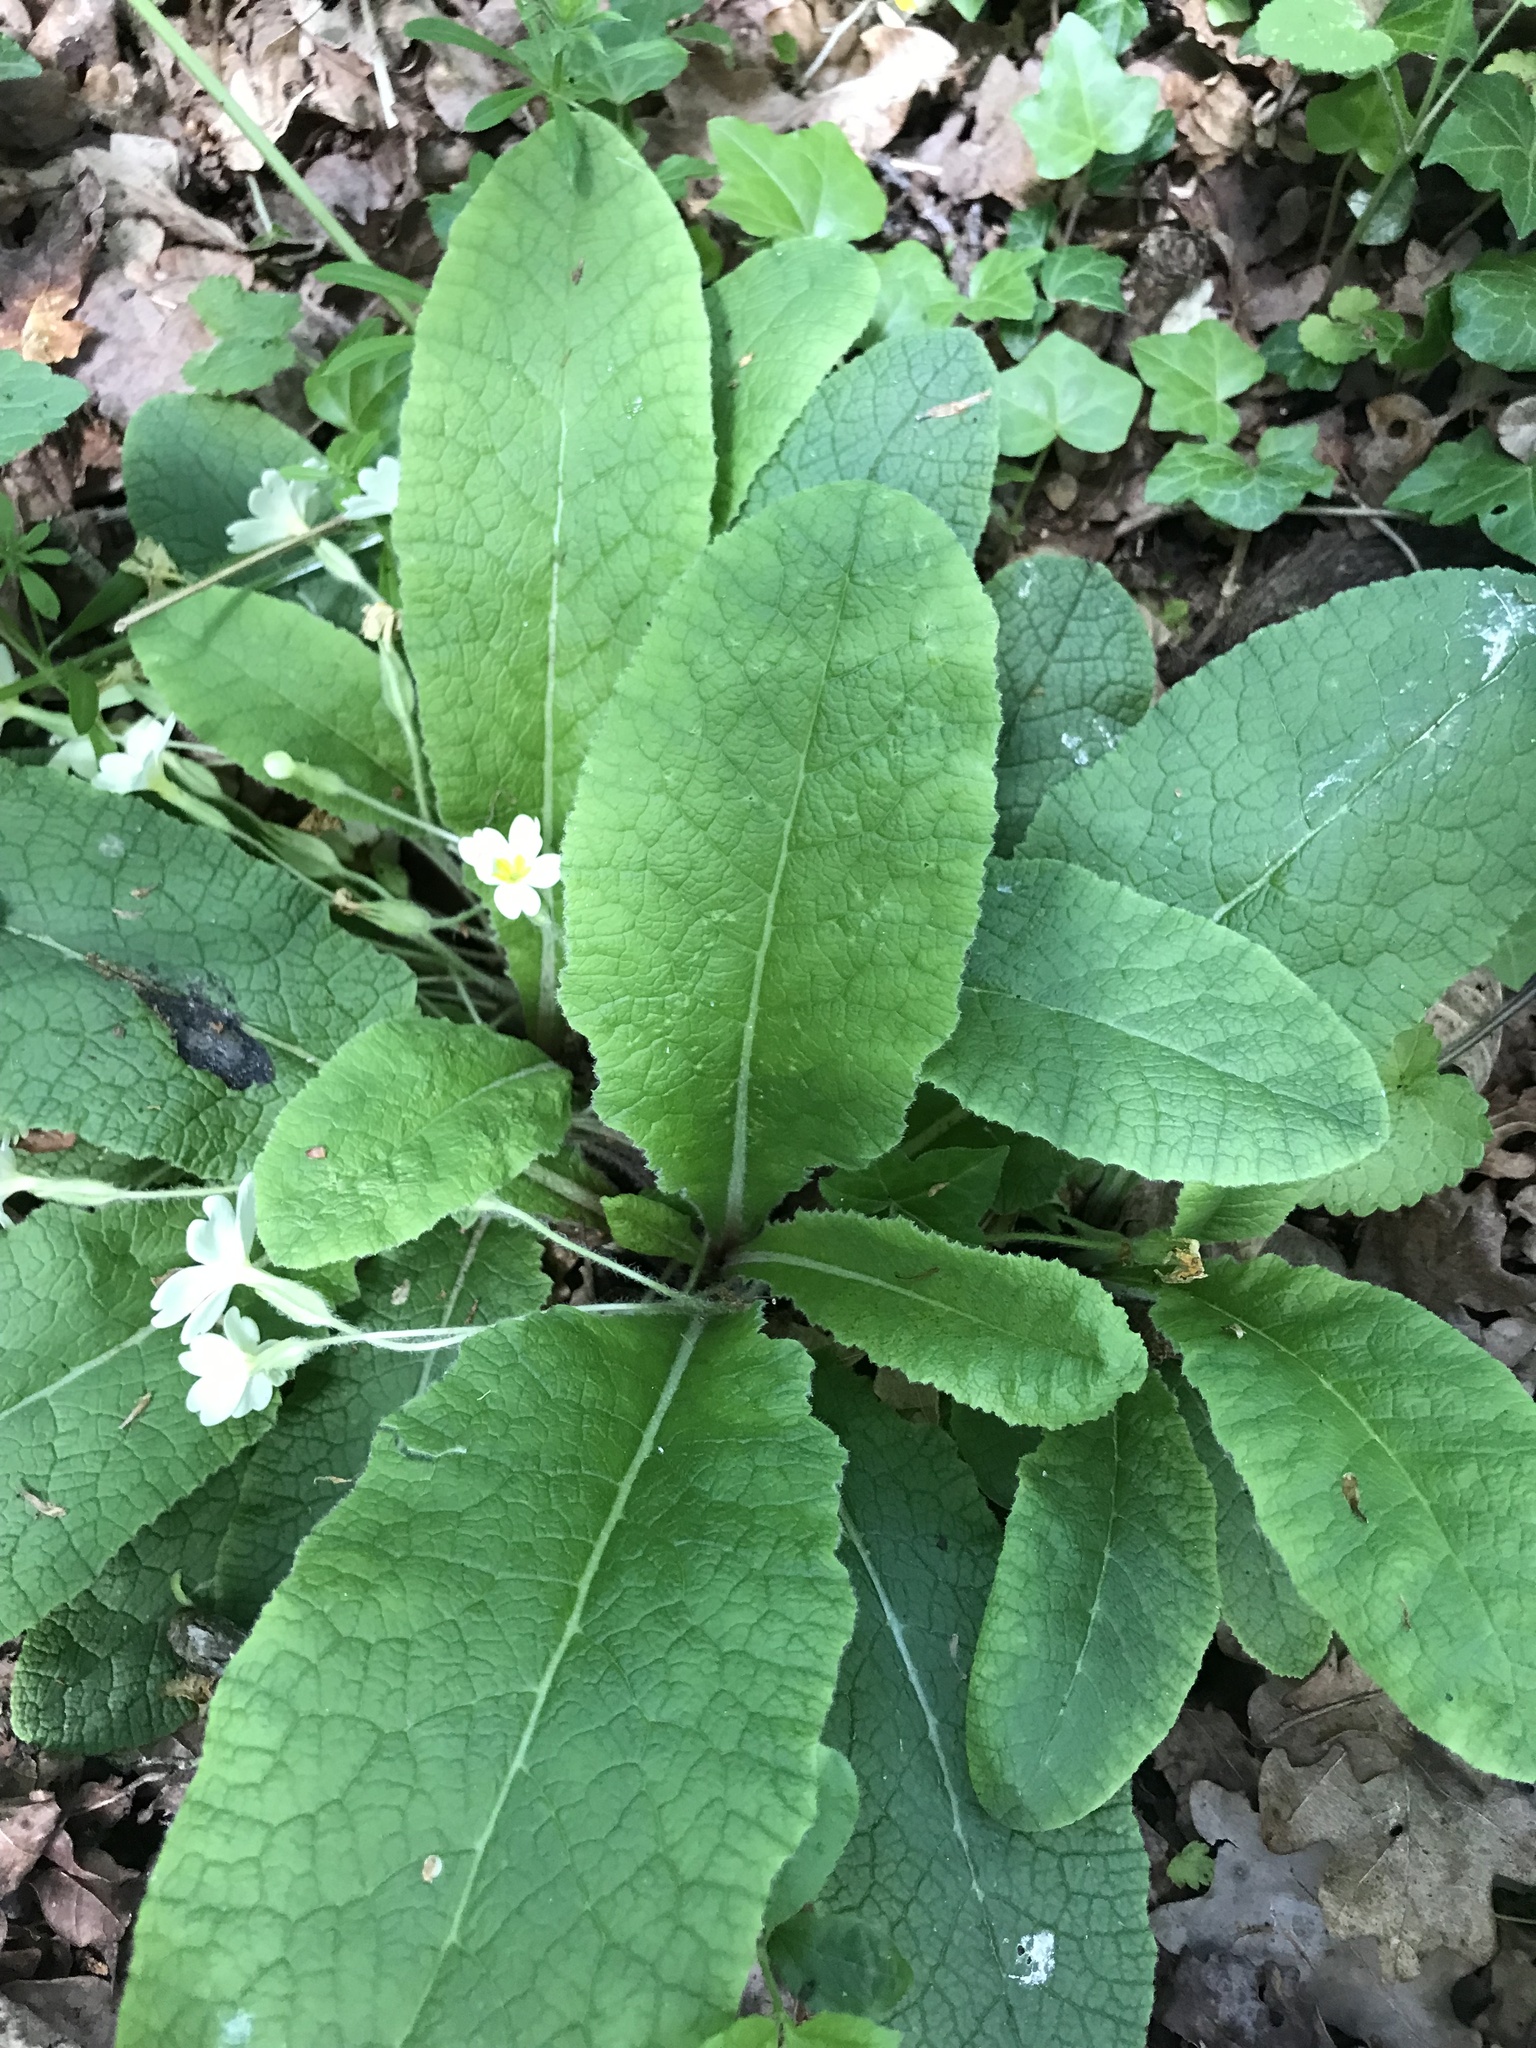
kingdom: Plantae
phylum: Tracheophyta
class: Magnoliopsida
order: Ericales
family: Primulaceae
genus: Primula
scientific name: Primula vulgaris
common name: Primrose
